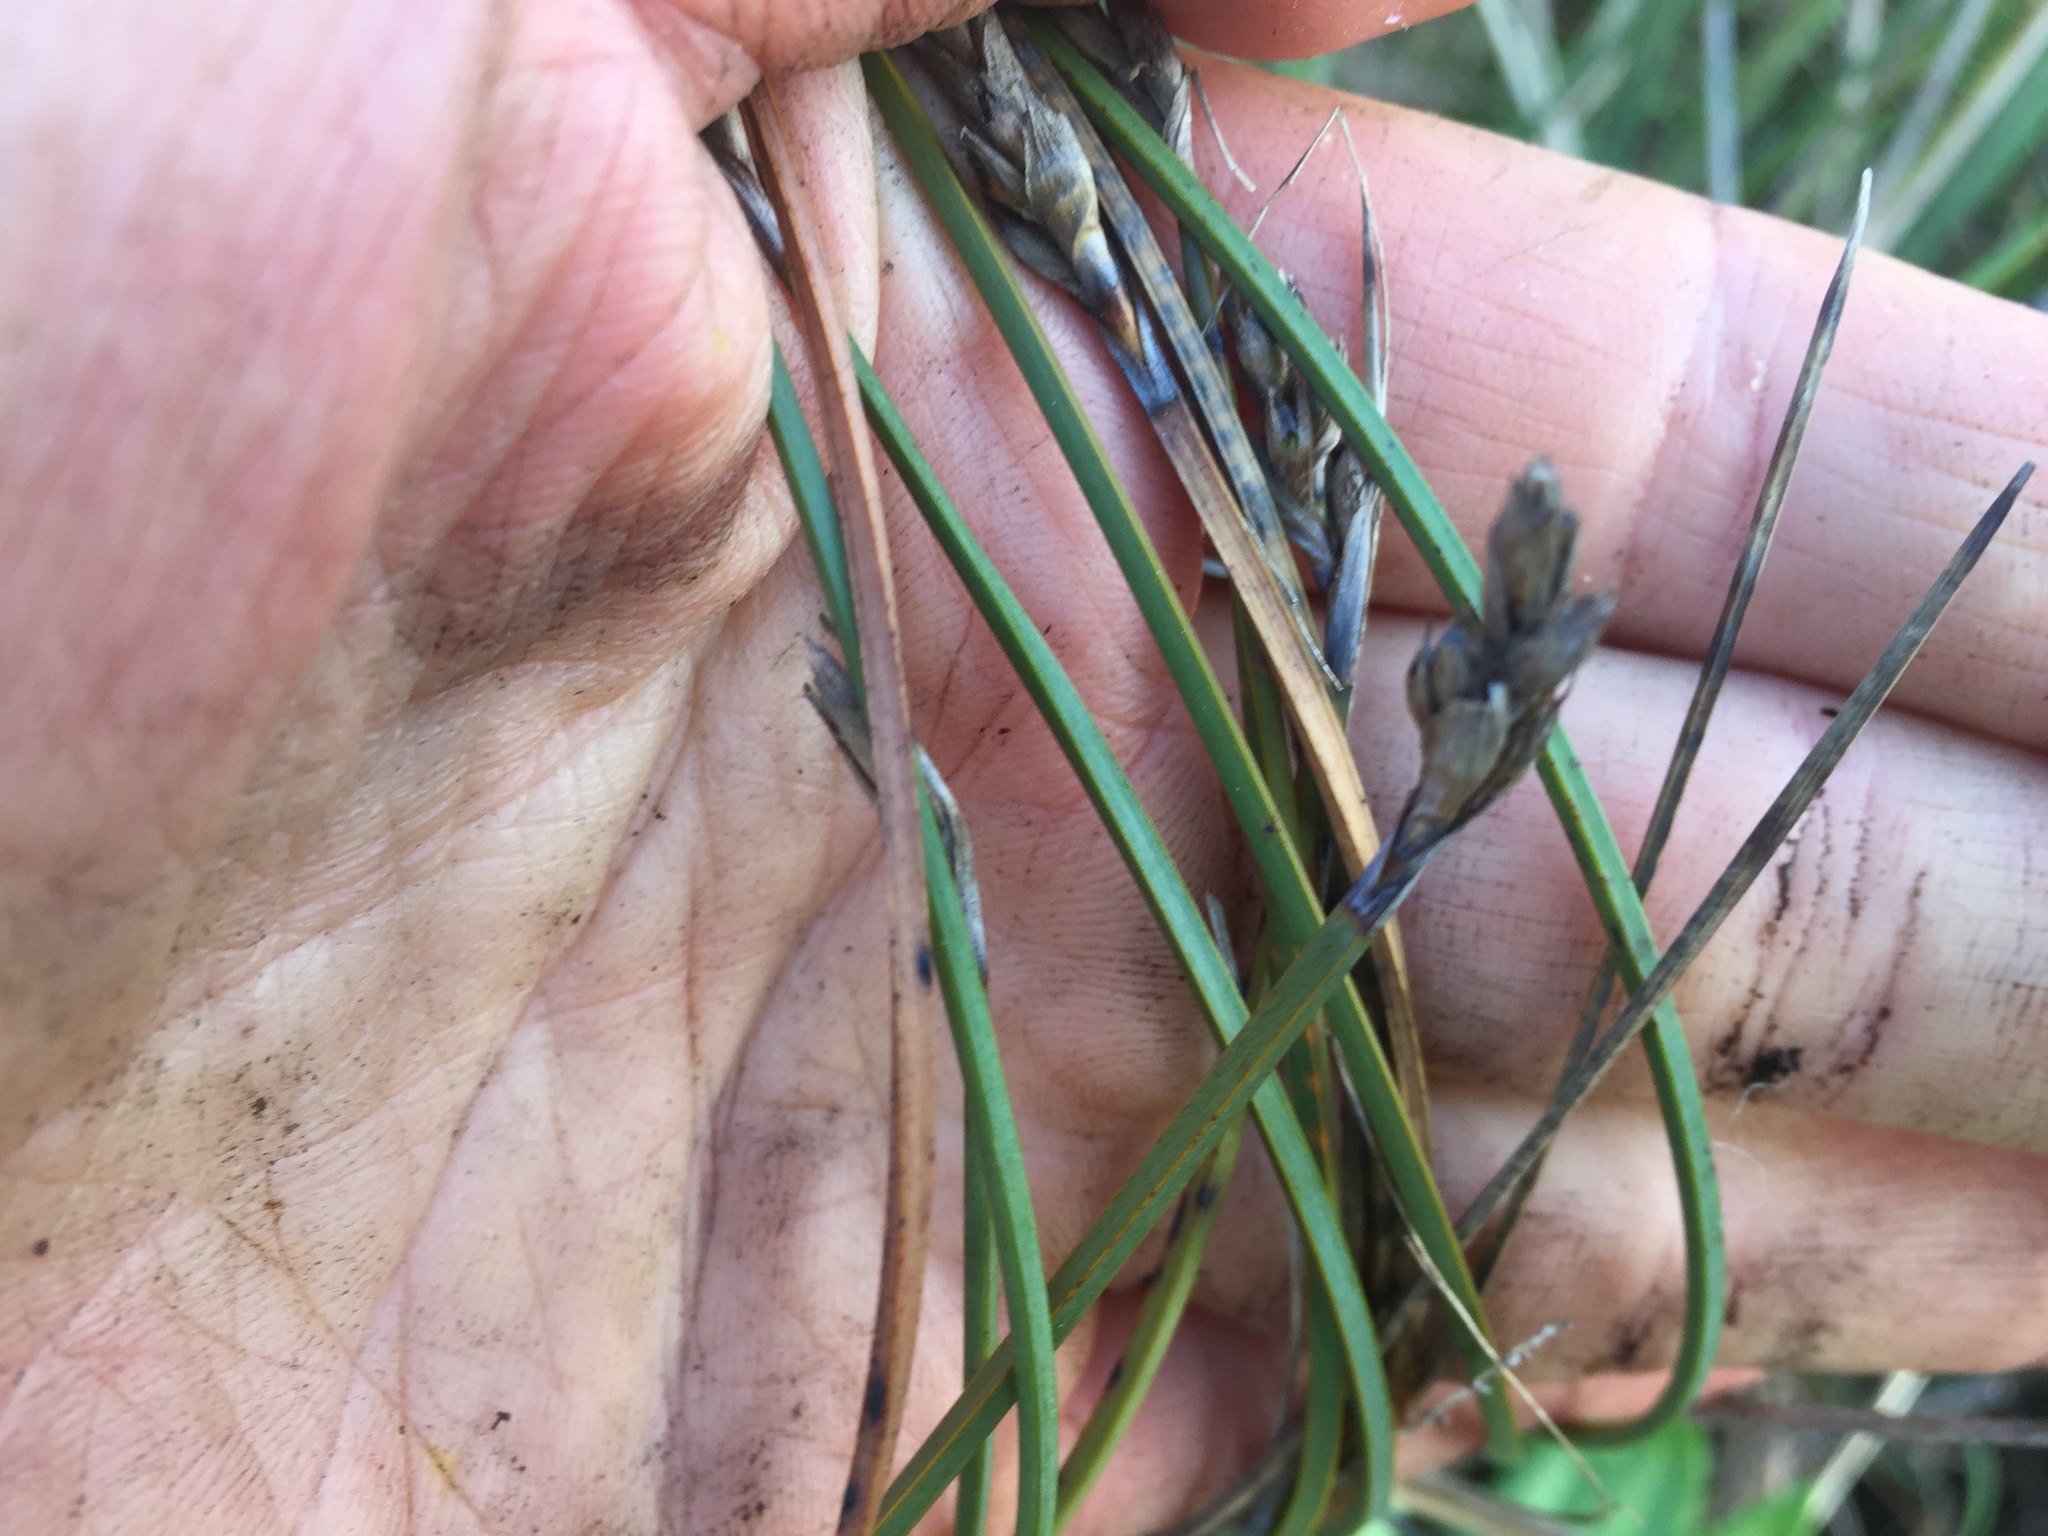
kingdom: Plantae
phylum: Tracheophyta
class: Liliopsida
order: Poales
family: Cyperaceae
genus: Lepidosperma
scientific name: Lepidosperma australe
